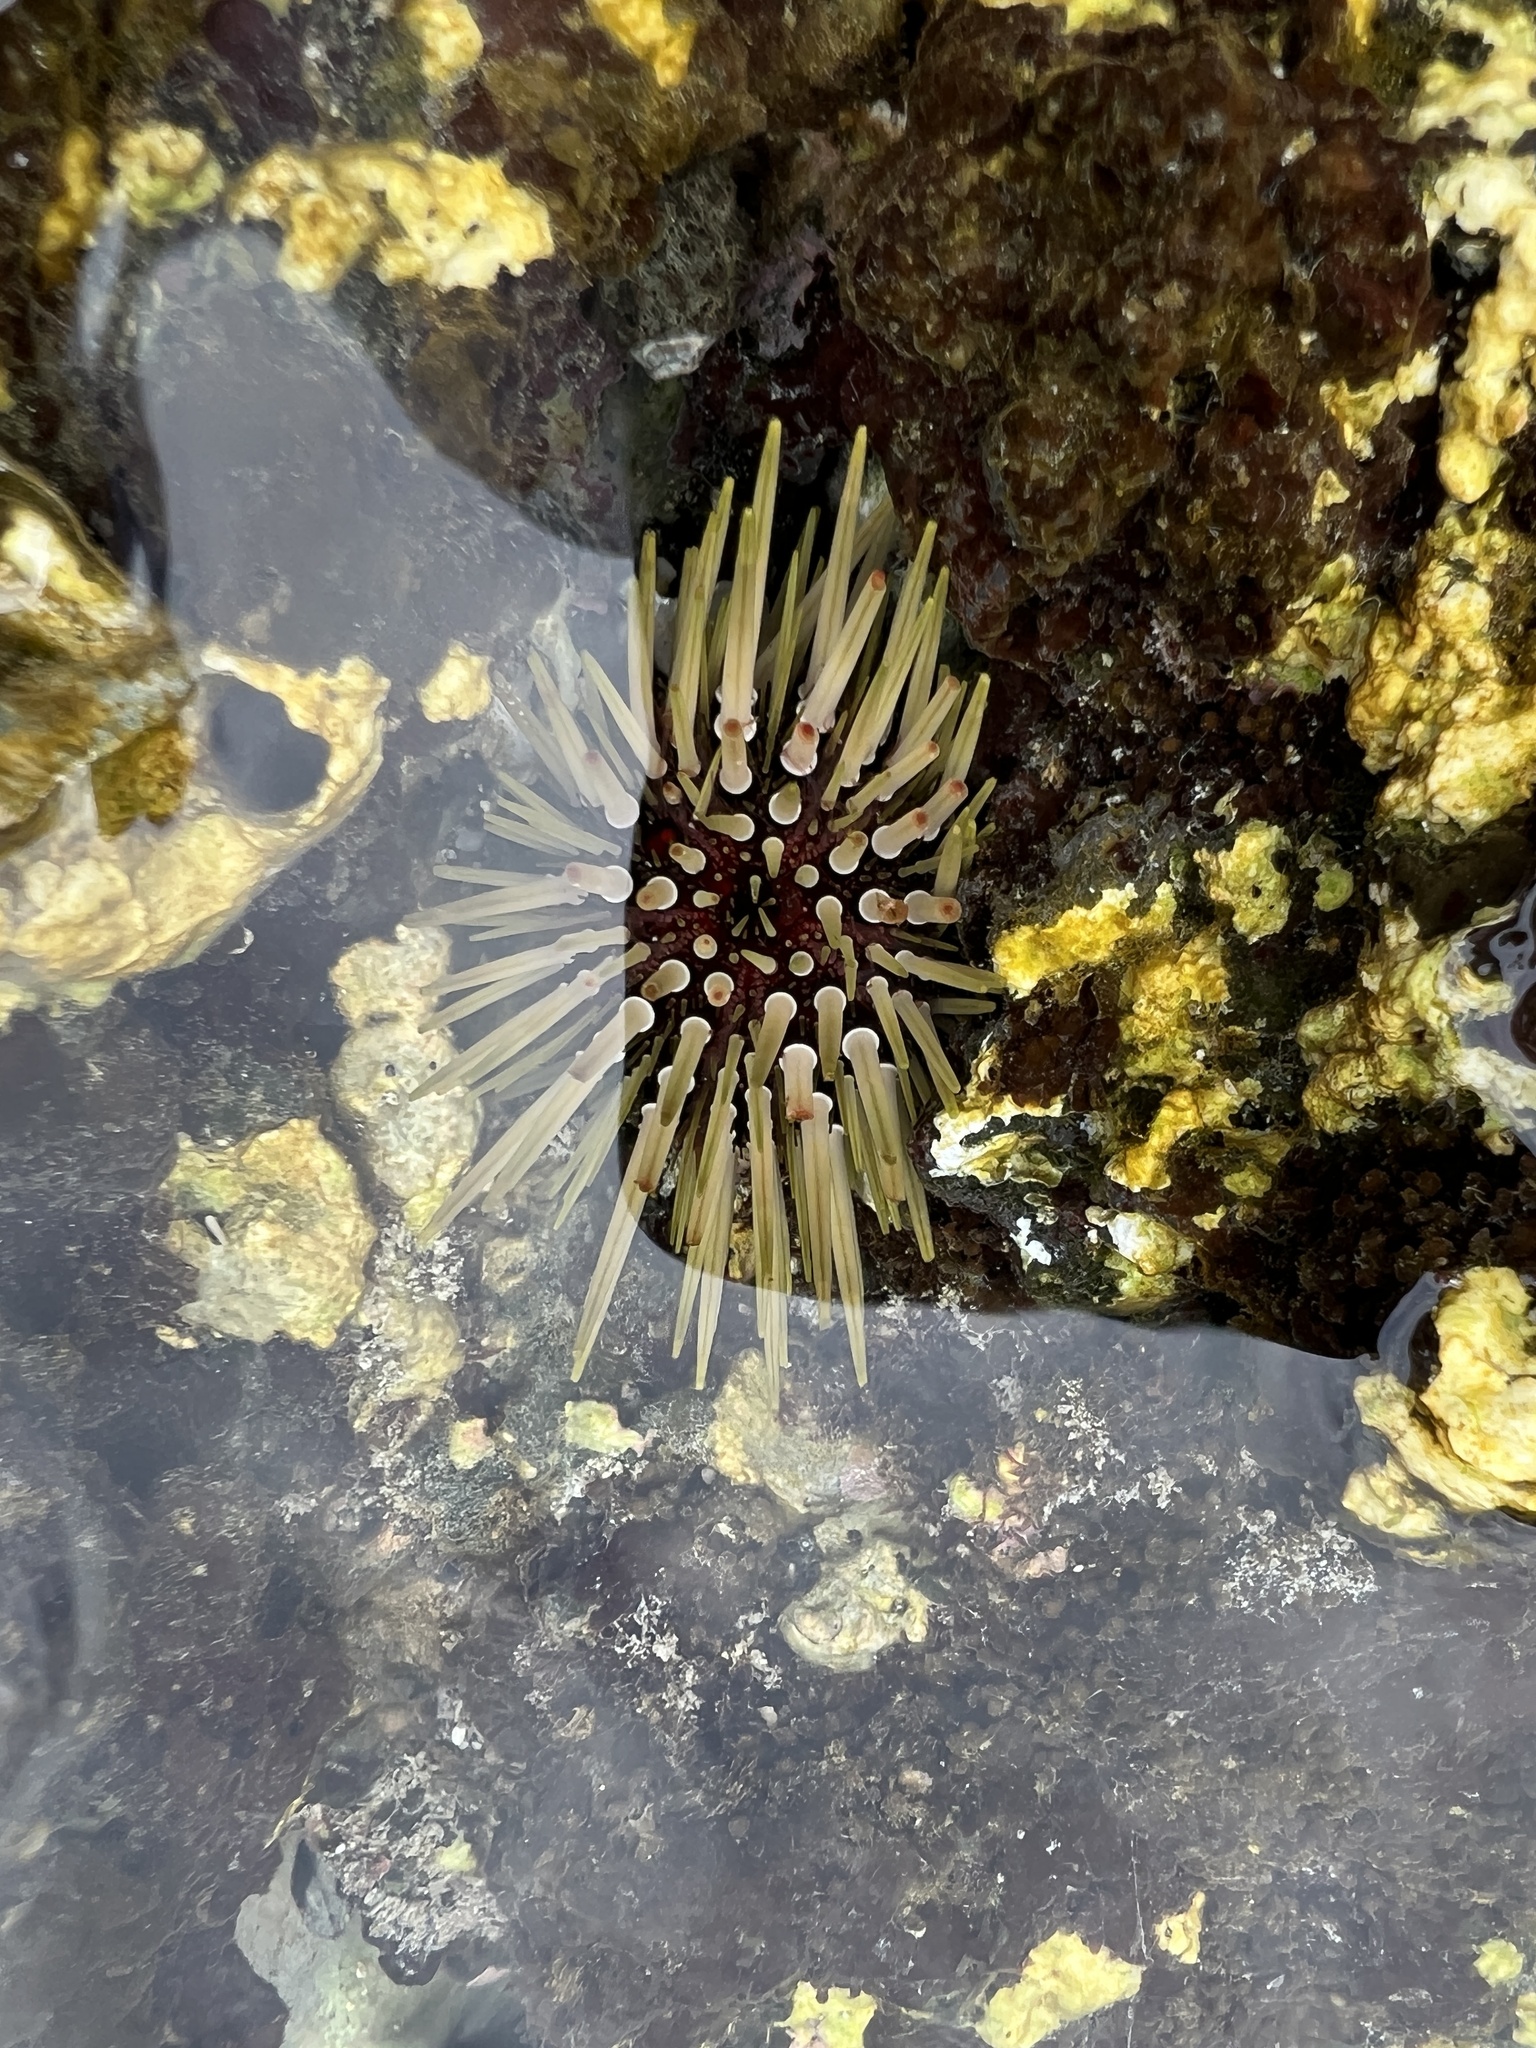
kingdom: Animalia
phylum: Echinodermata
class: Echinoidea
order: Camarodonta
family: Echinometridae
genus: Echinometra
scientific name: Echinometra mathaei
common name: Rock-boring urchin
